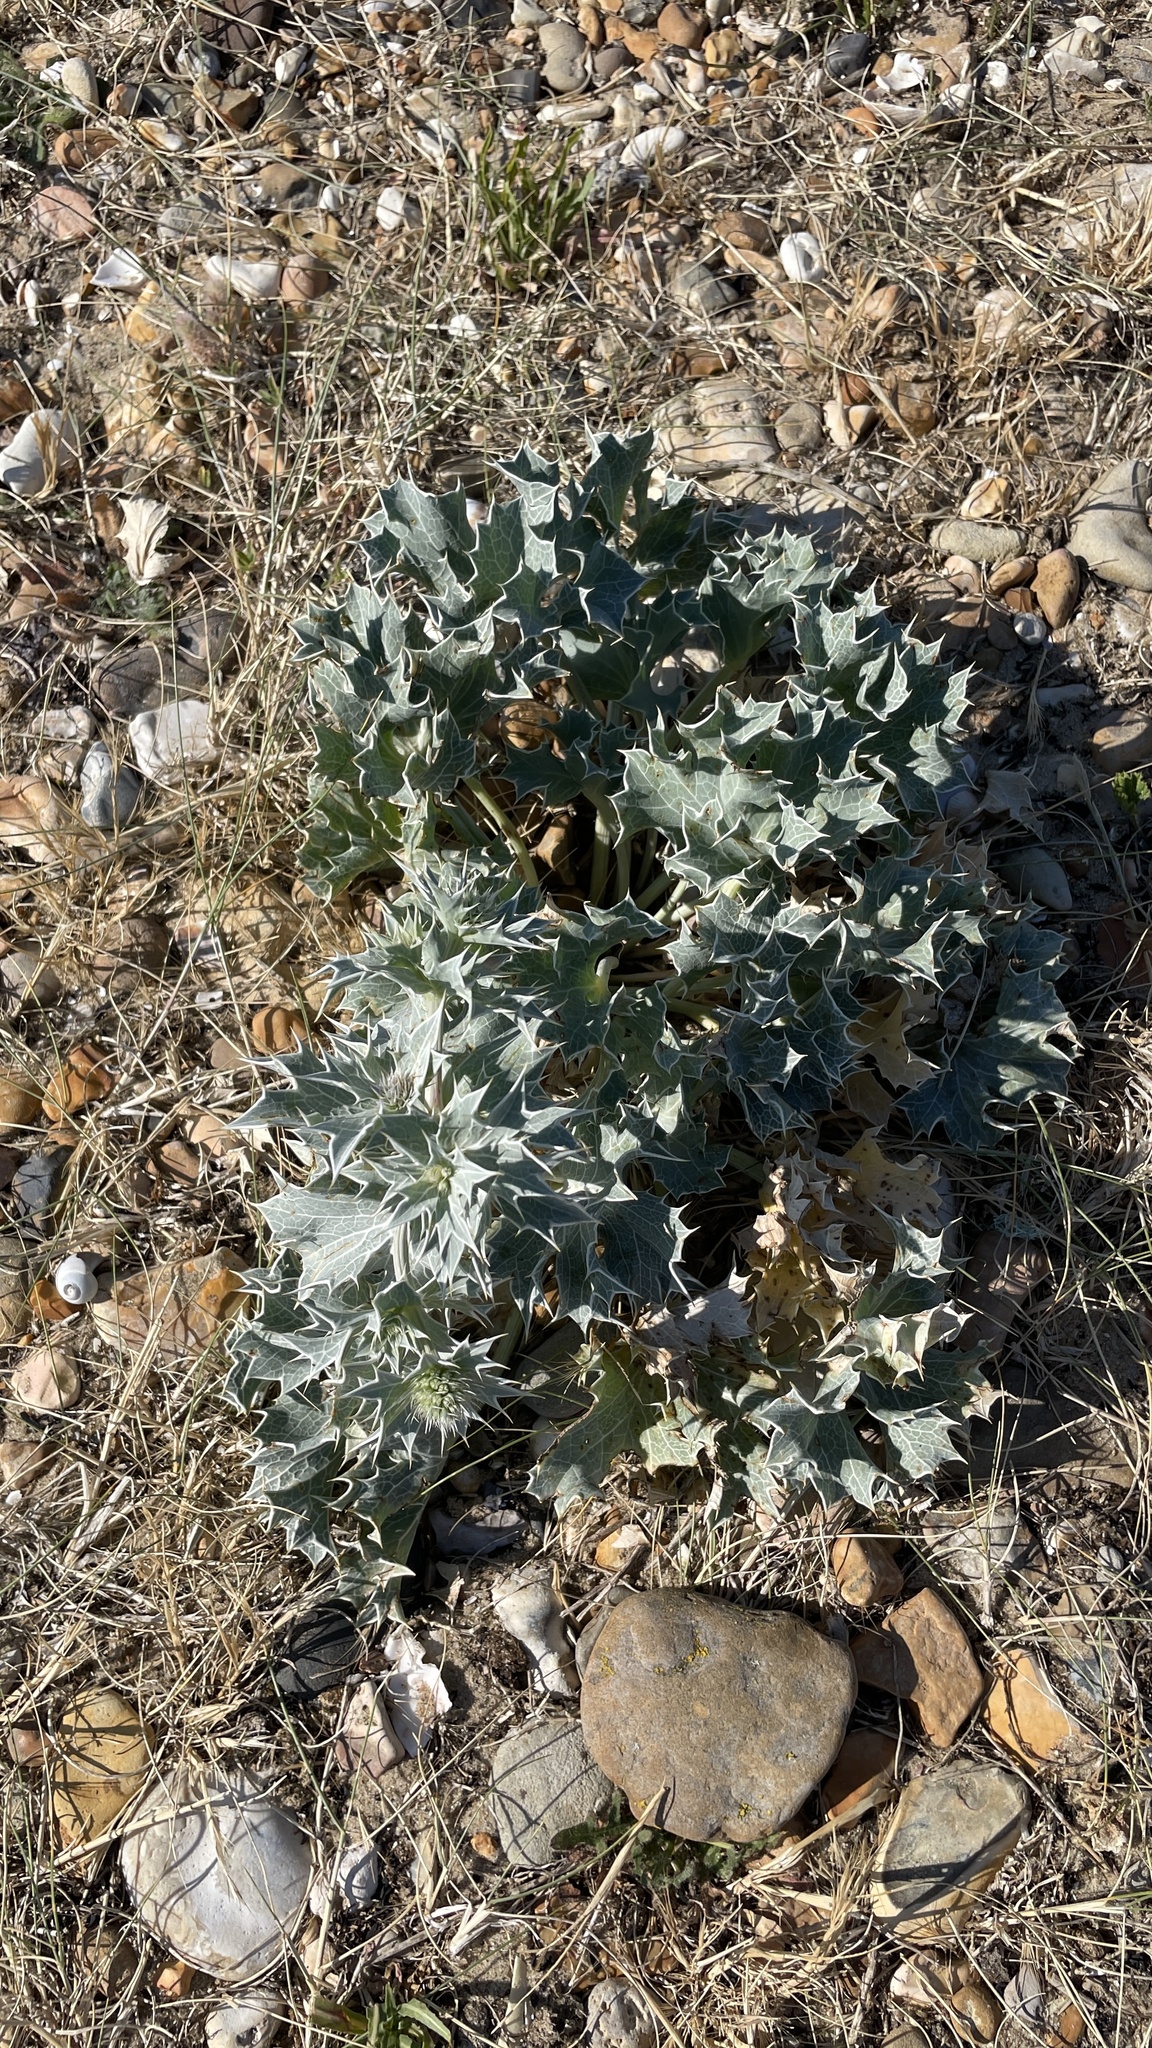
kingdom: Plantae
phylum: Tracheophyta
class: Magnoliopsida
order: Apiales
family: Apiaceae
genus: Eryngium
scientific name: Eryngium maritimum
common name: Sea-holly
